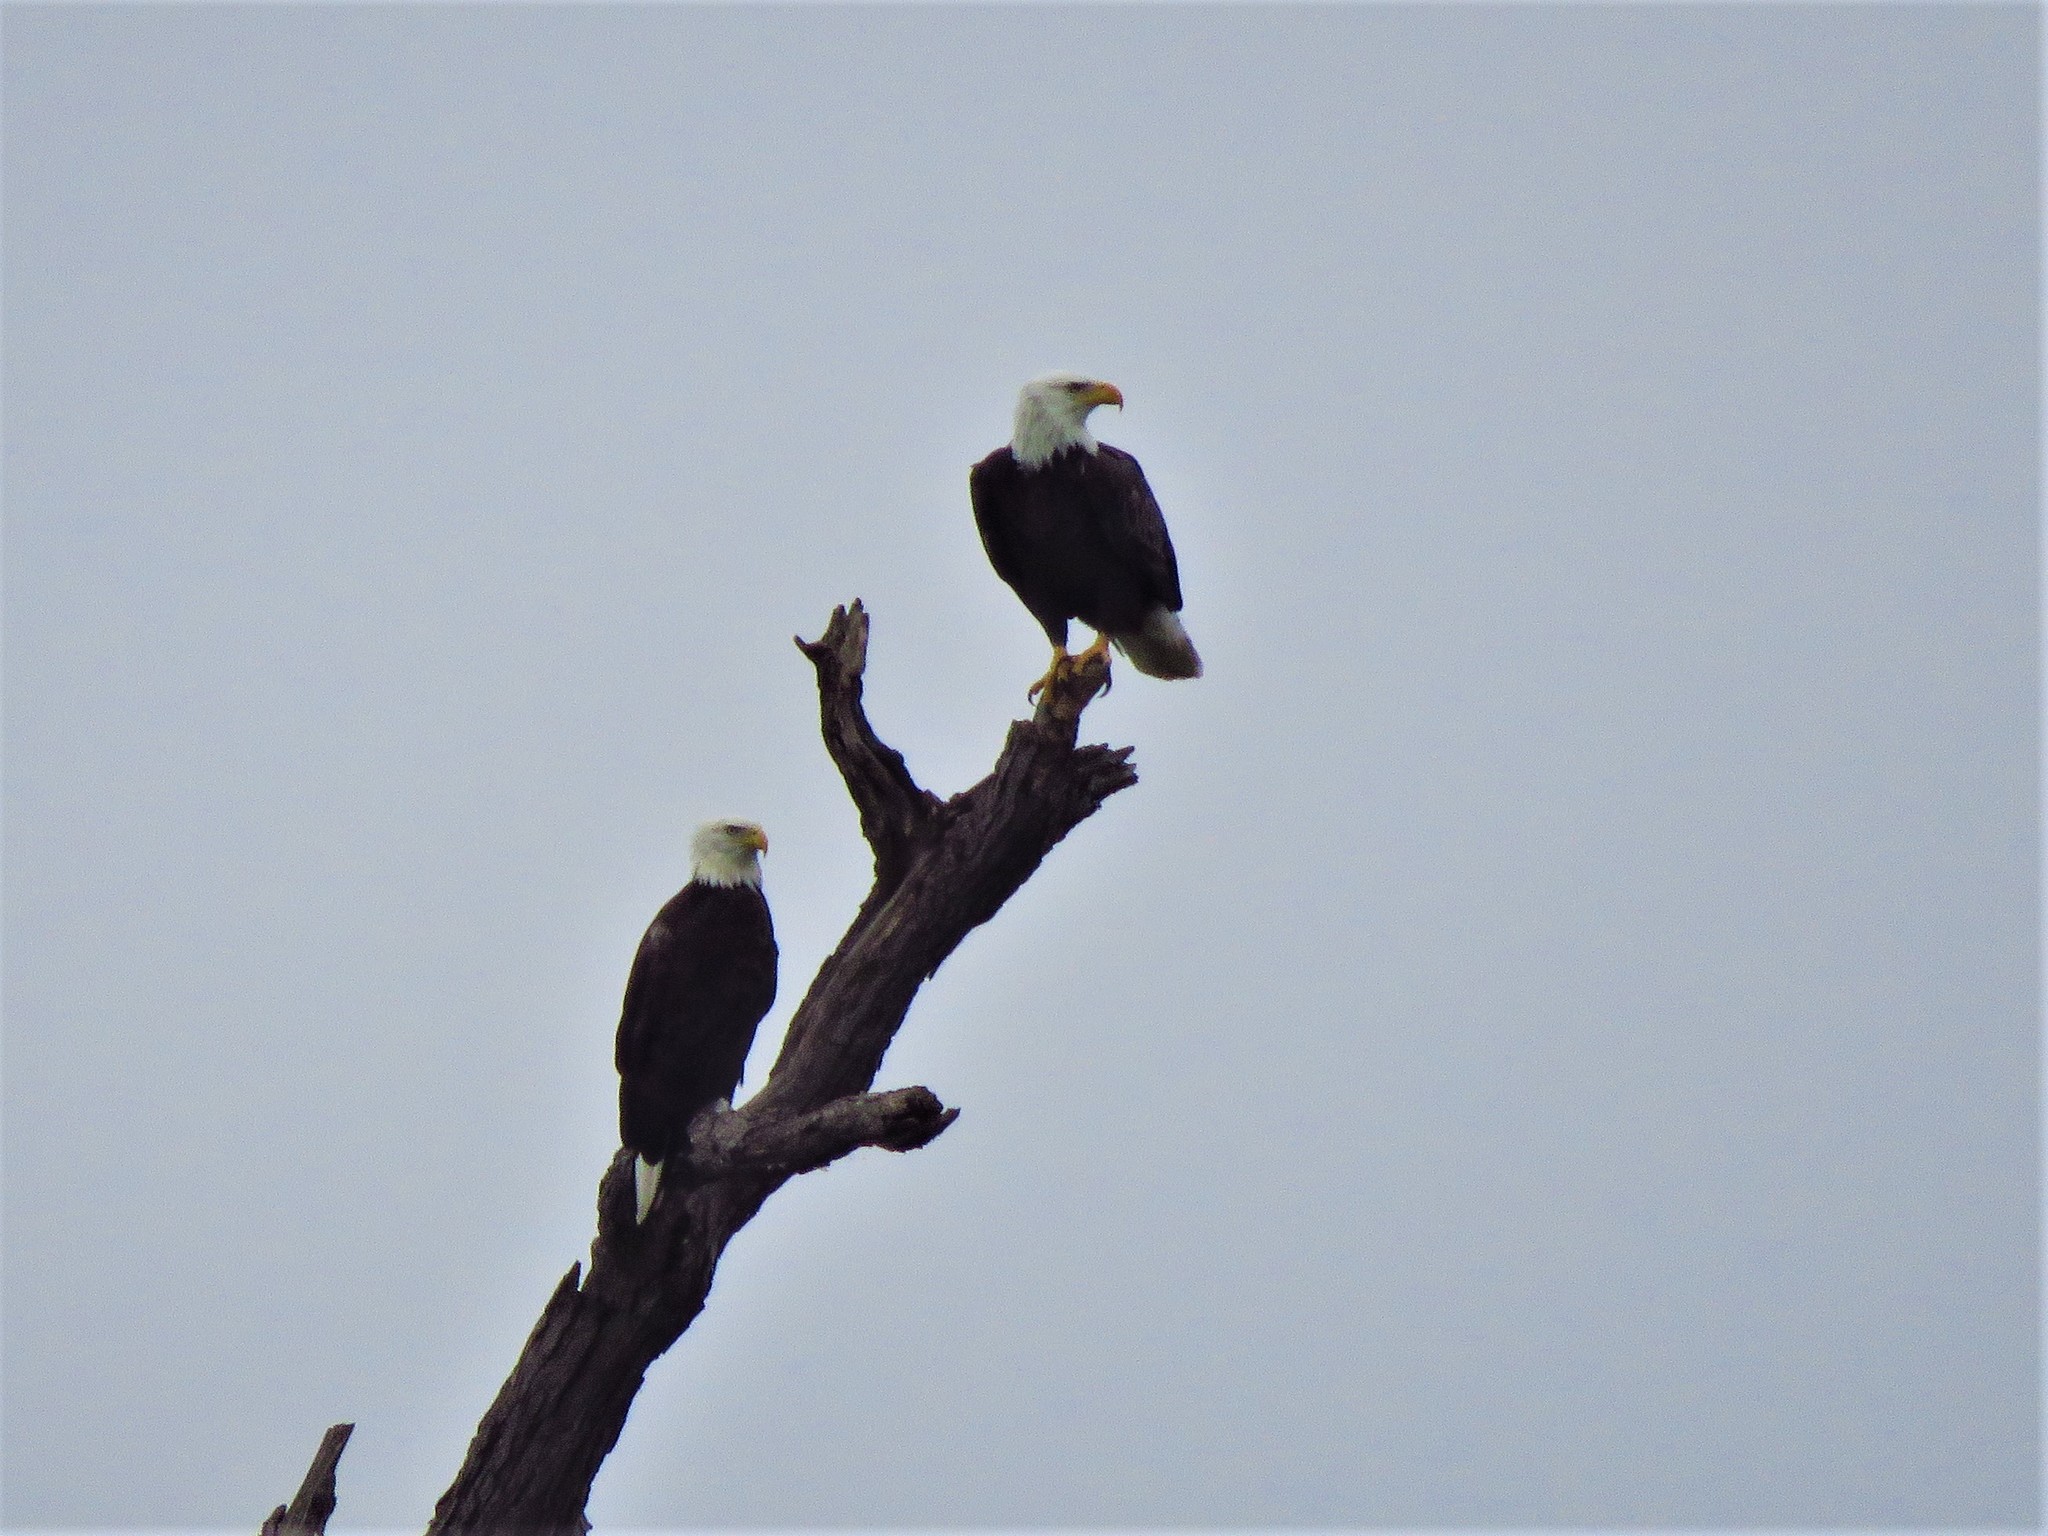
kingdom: Animalia
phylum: Chordata
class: Aves
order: Accipitriformes
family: Accipitridae
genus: Haliaeetus
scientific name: Haliaeetus leucocephalus
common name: Bald eagle
